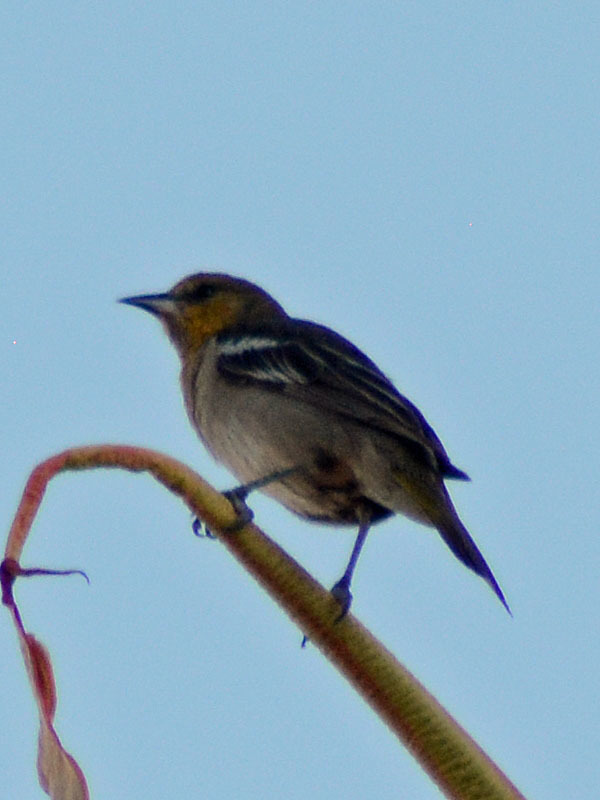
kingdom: Animalia
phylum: Chordata
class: Aves
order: Passeriformes
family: Icteridae
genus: Icterus
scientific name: Icterus bullockii
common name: Bullock's oriole
